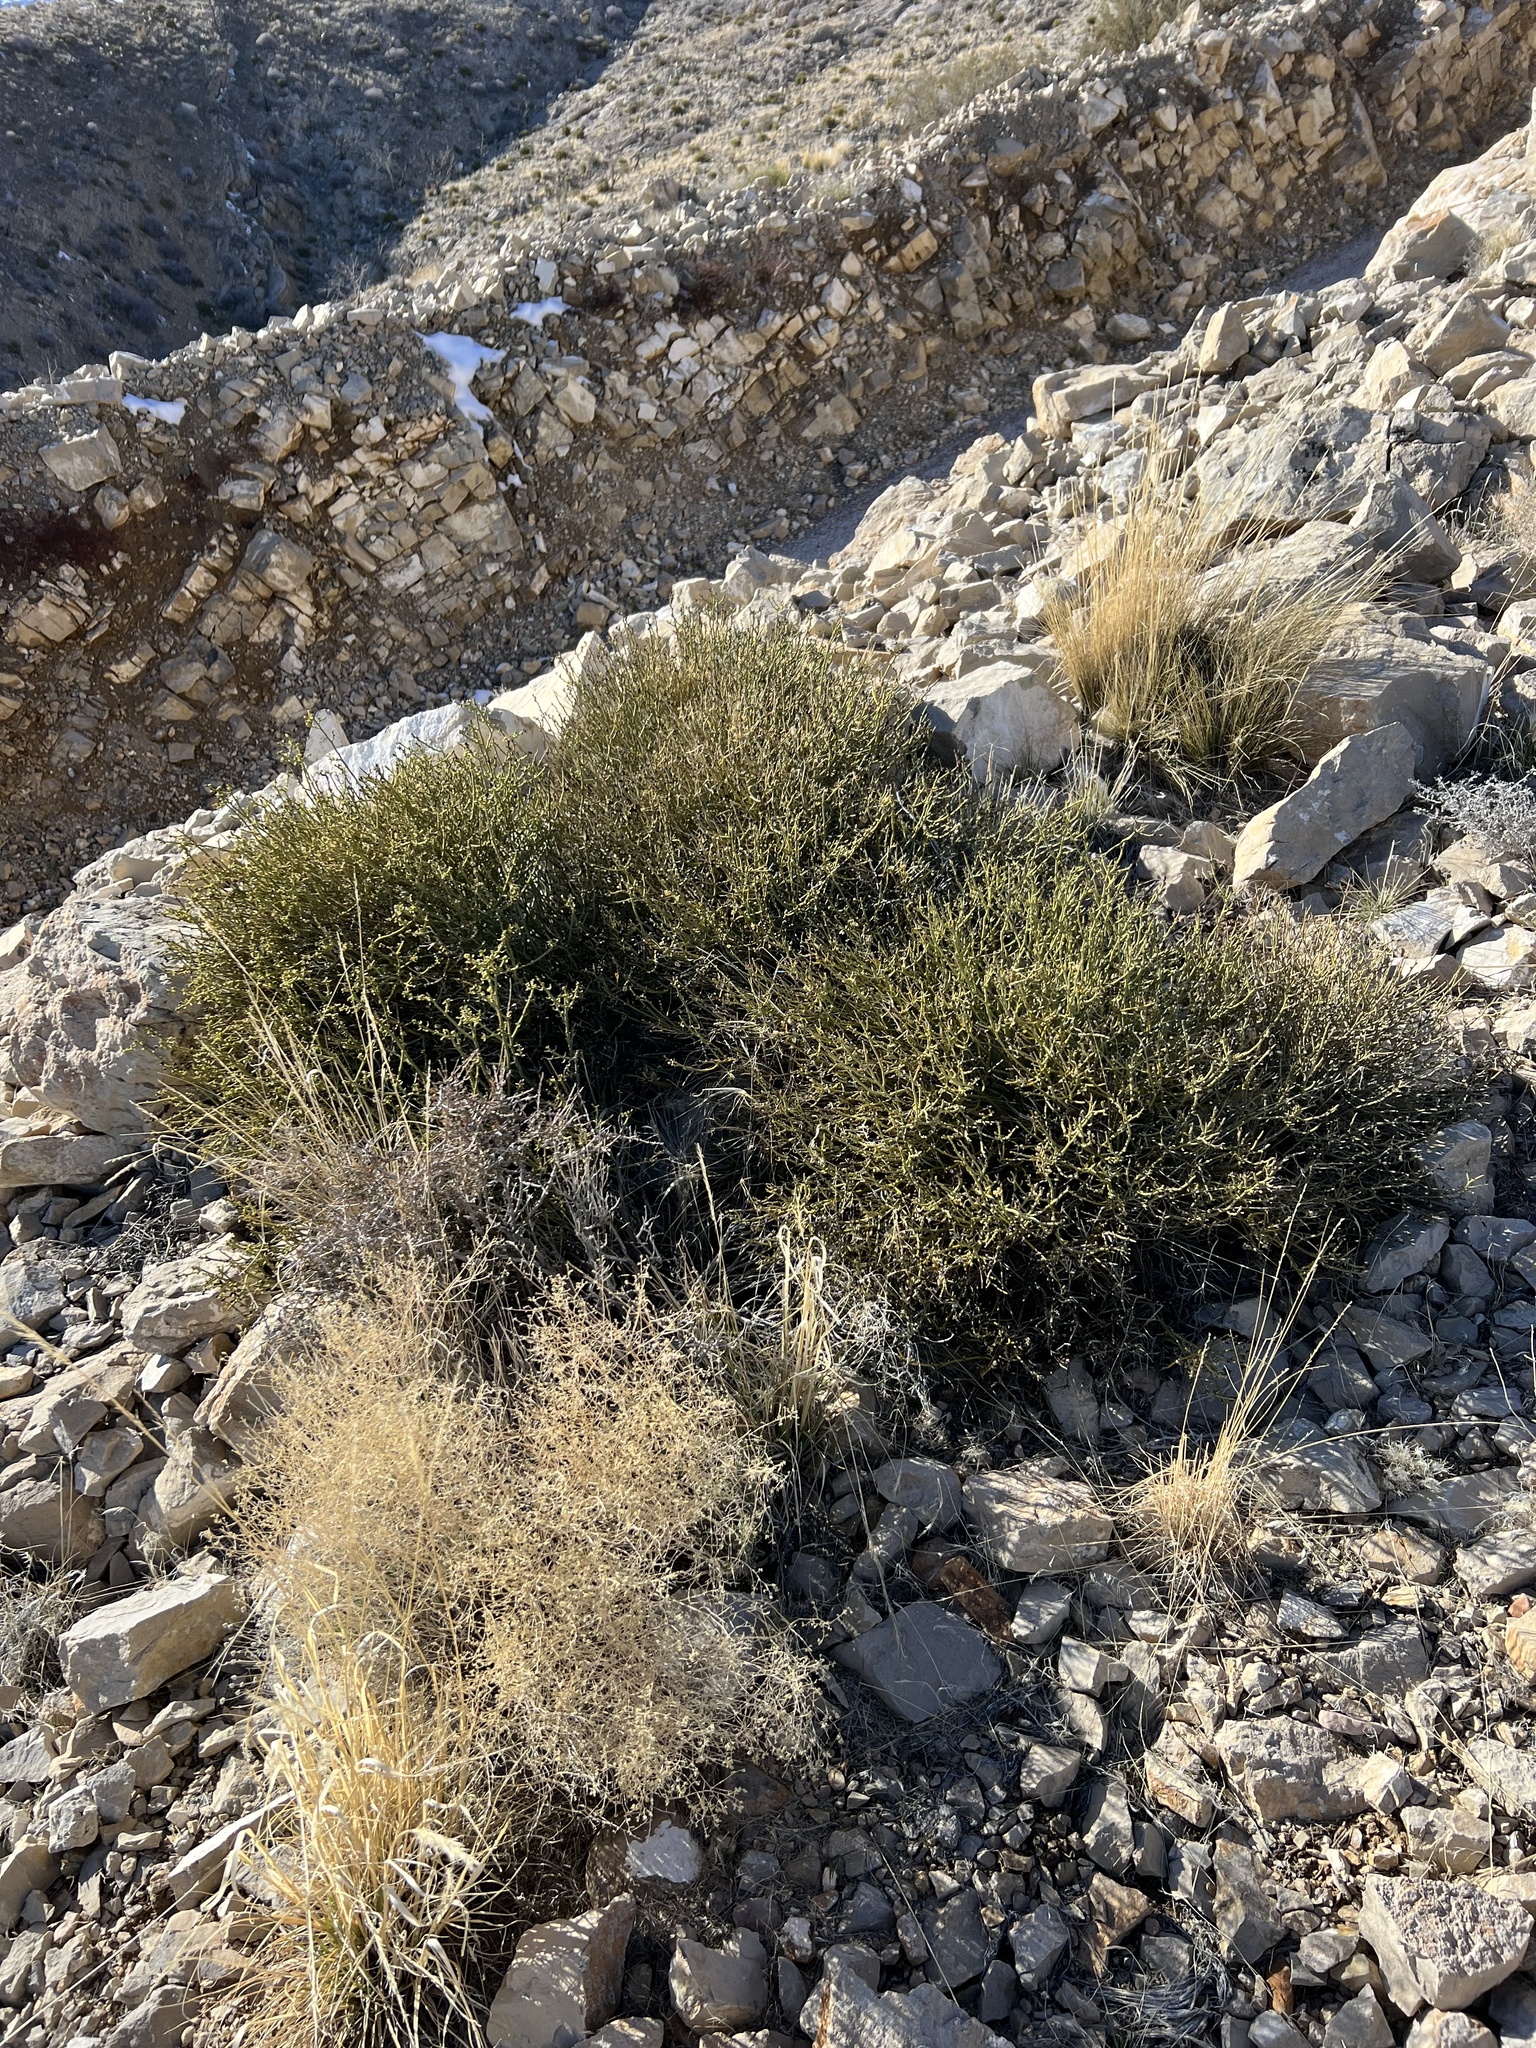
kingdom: Plantae
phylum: Tracheophyta
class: Magnoliopsida
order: Sapindales
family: Rutaceae
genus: Thamnosma
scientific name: Thamnosma montana
